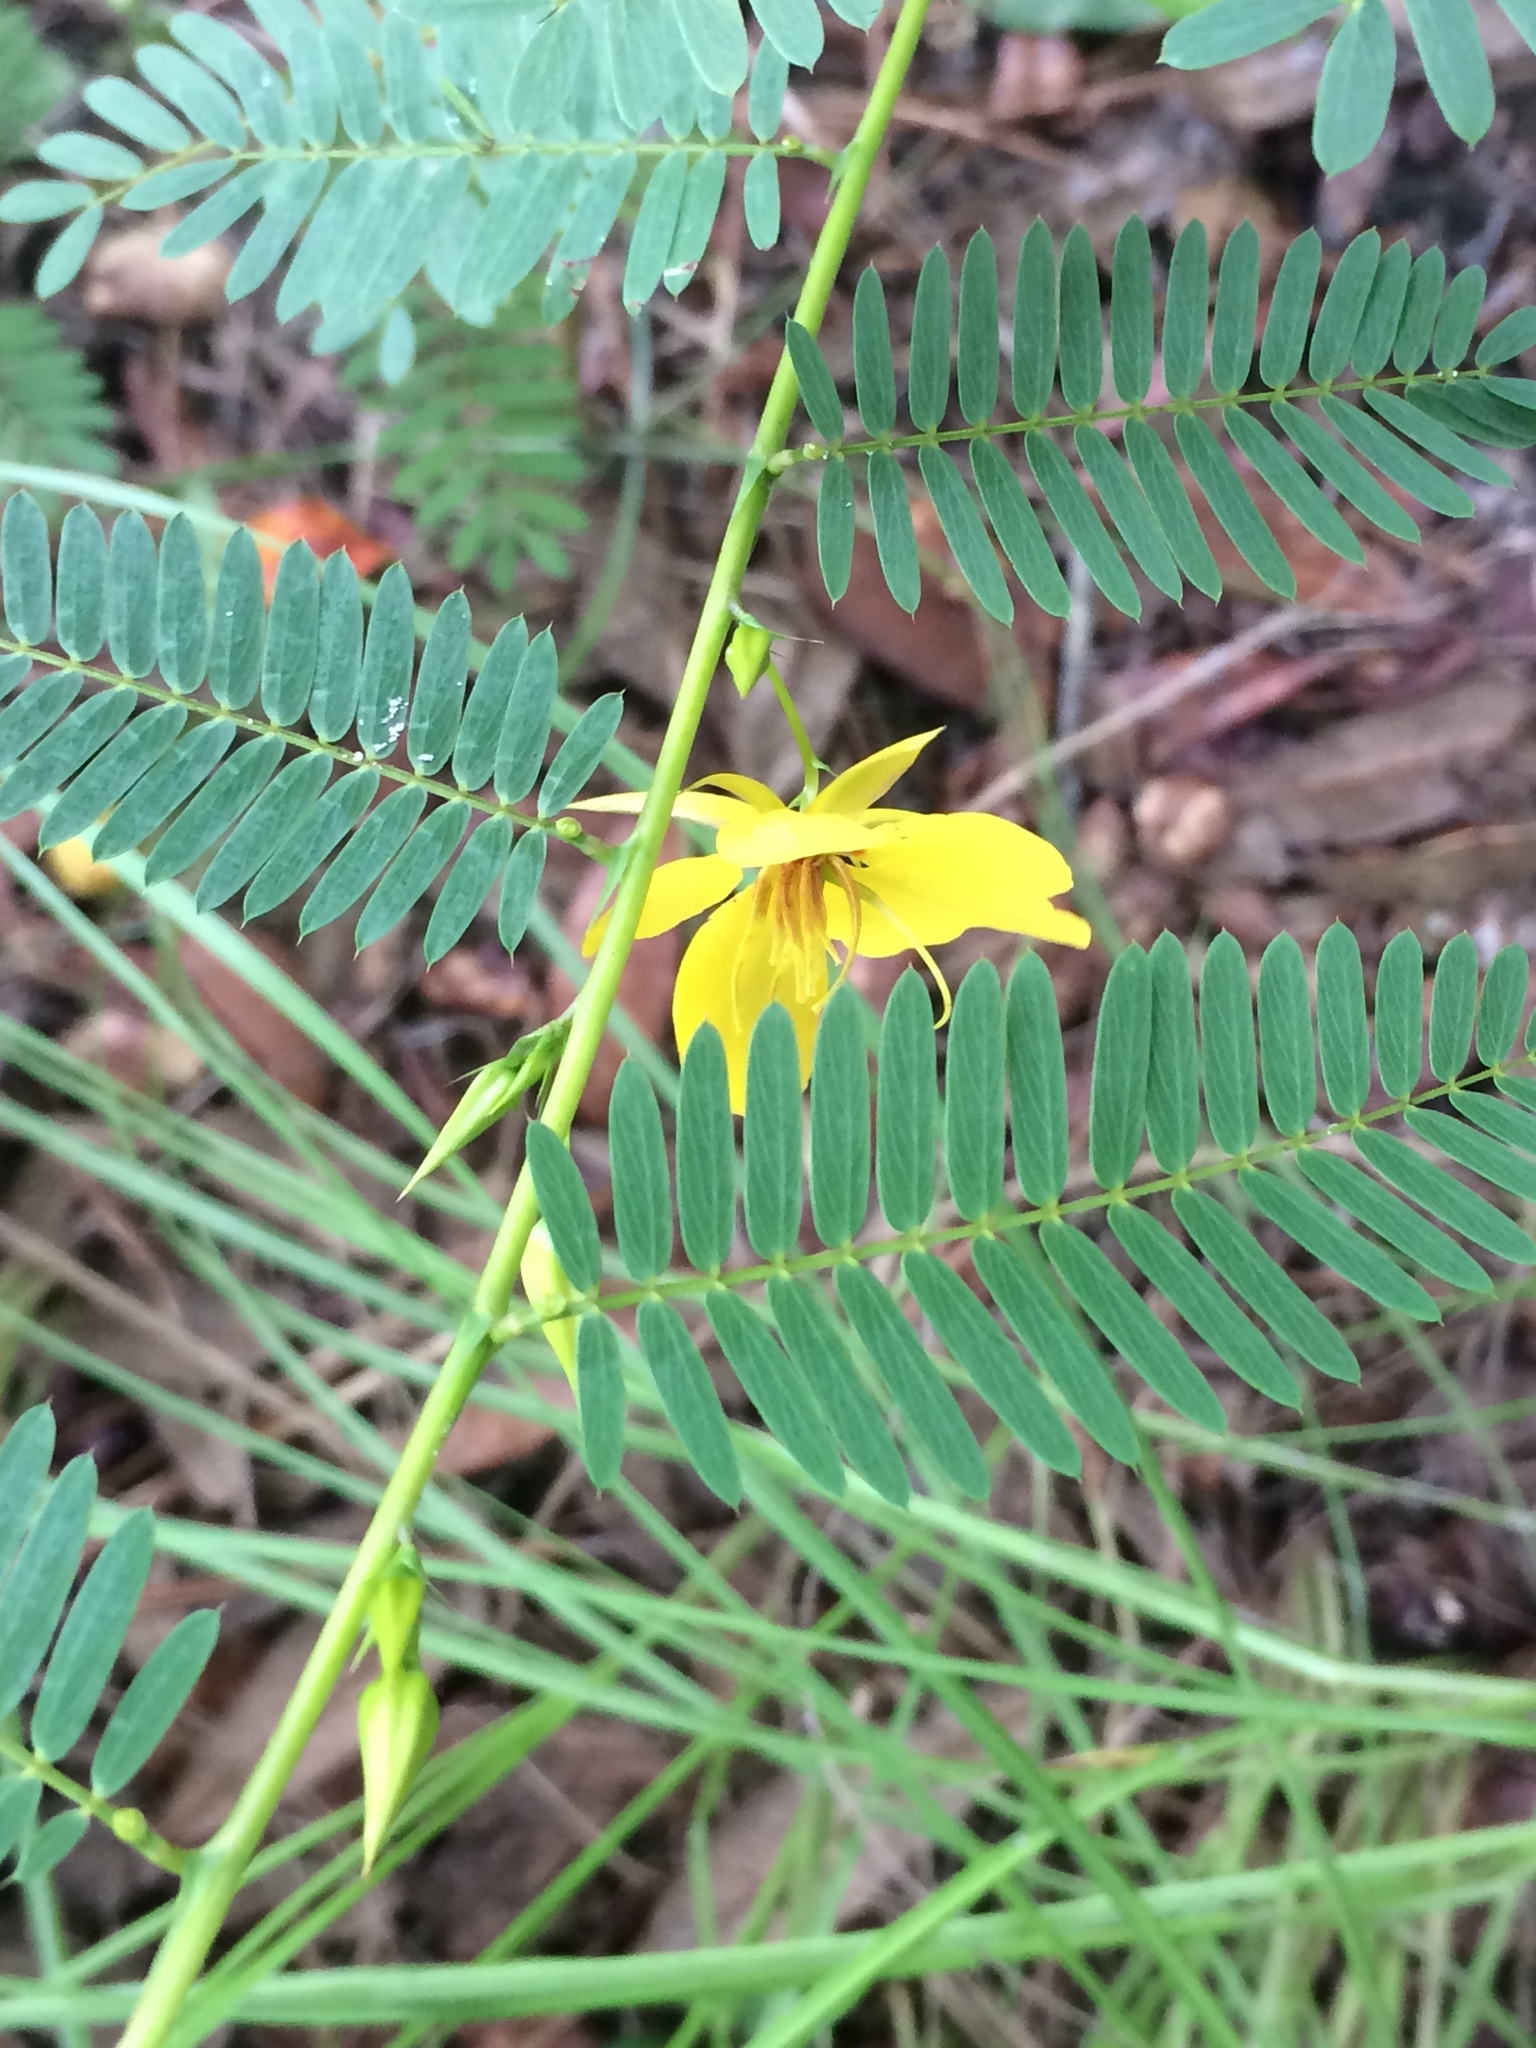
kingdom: Plantae
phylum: Tracheophyta
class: Magnoliopsida
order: Fabales
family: Fabaceae
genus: Chamaecrista
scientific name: Chamaecrista fasciculata
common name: Golden cassia
